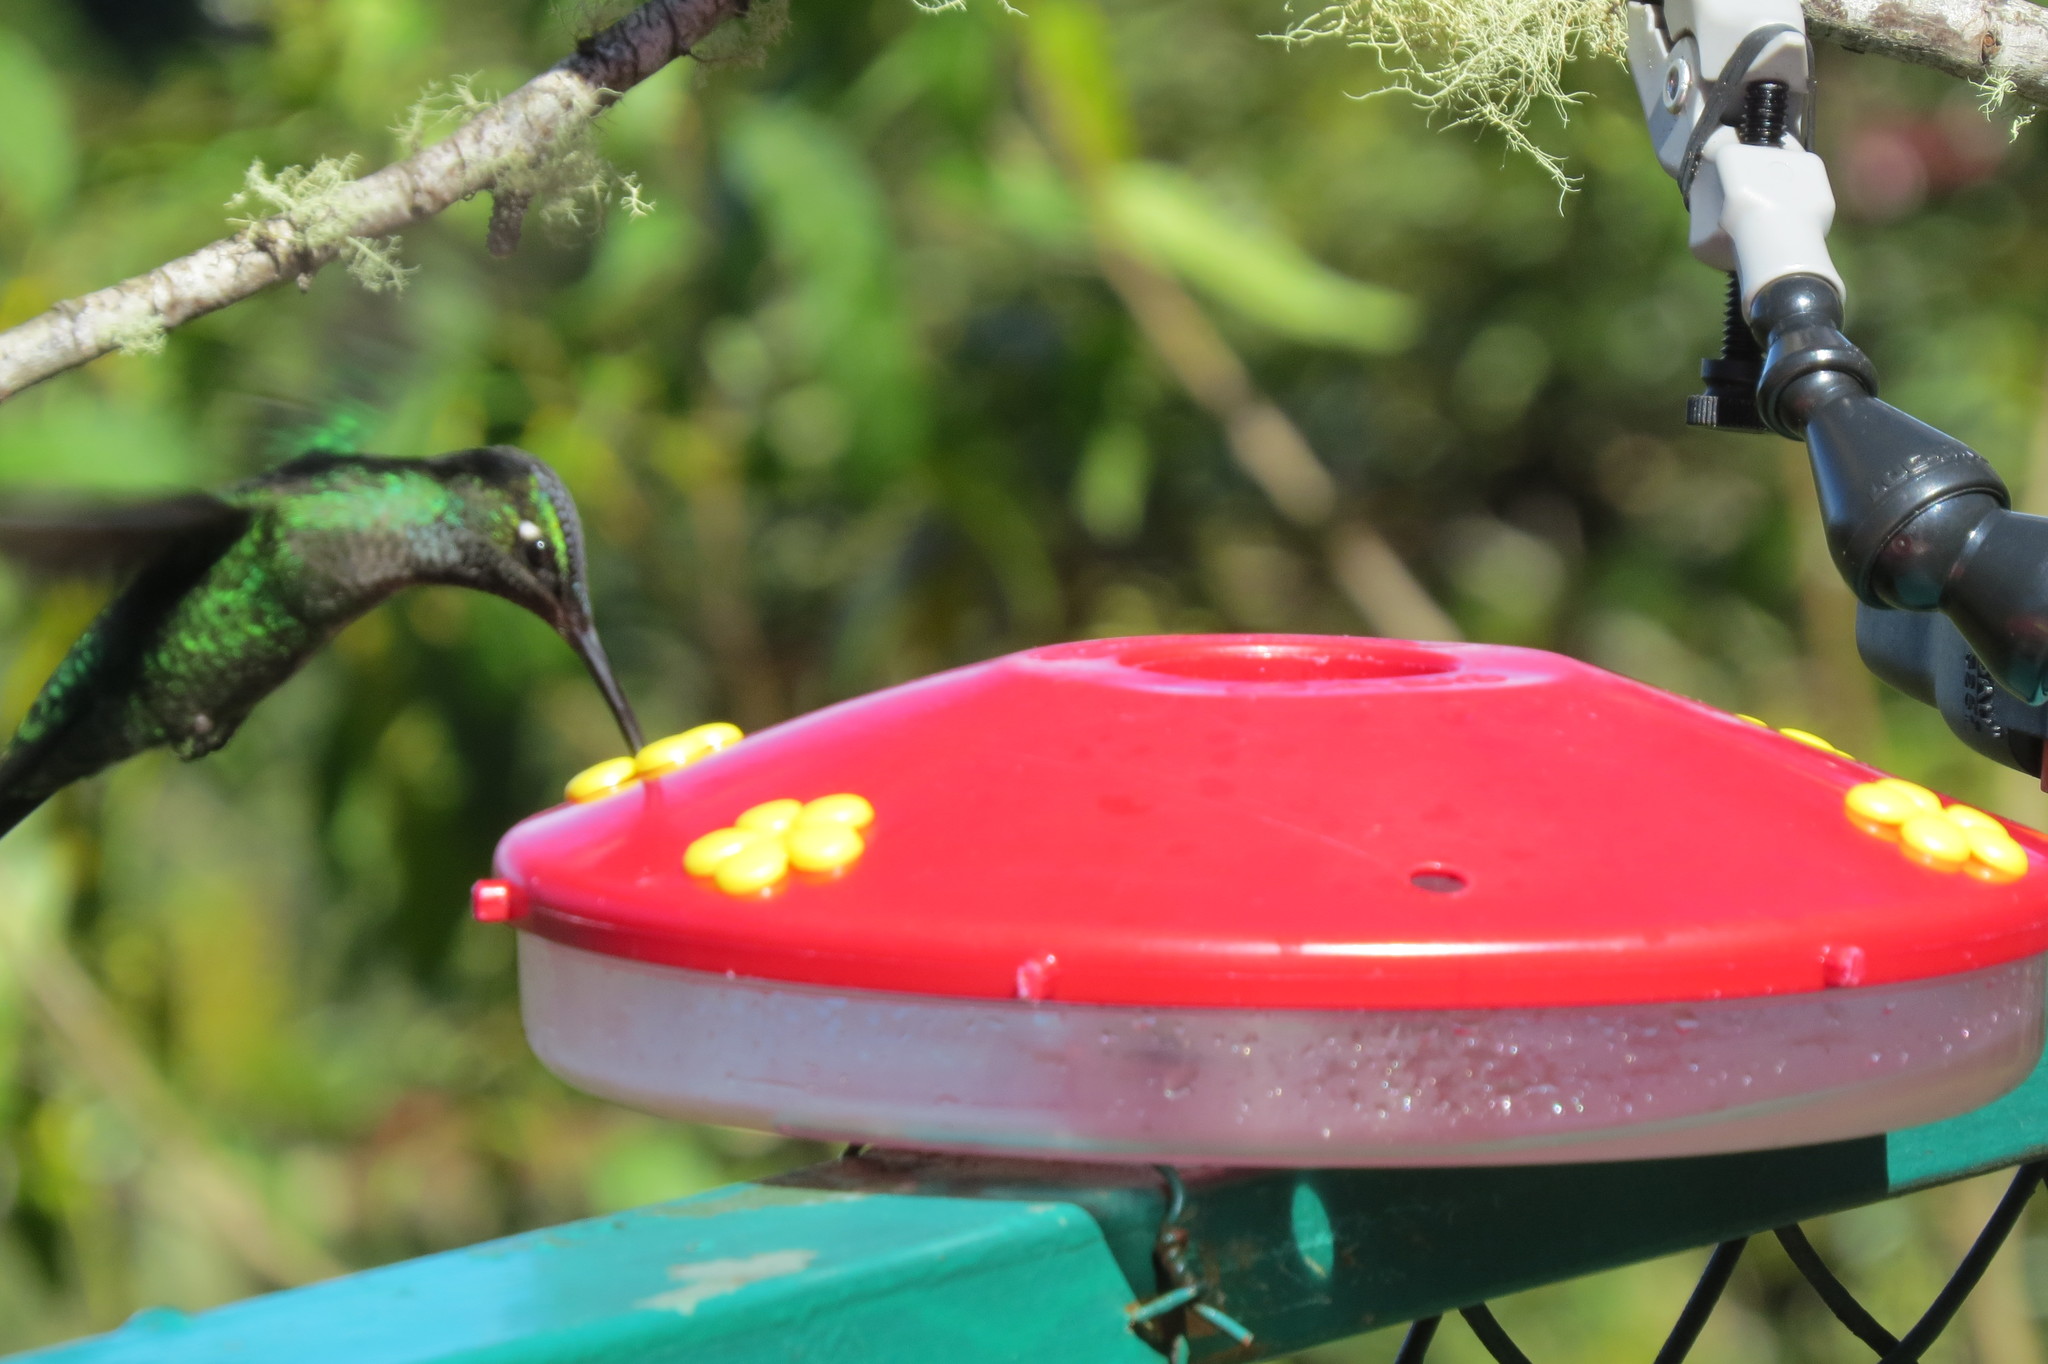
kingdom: Animalia
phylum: Chordata
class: Aves
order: Apodiformes
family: Trochilidae
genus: Eugenes
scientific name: Eugenes spectabilis
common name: Talamanca hummingbird
